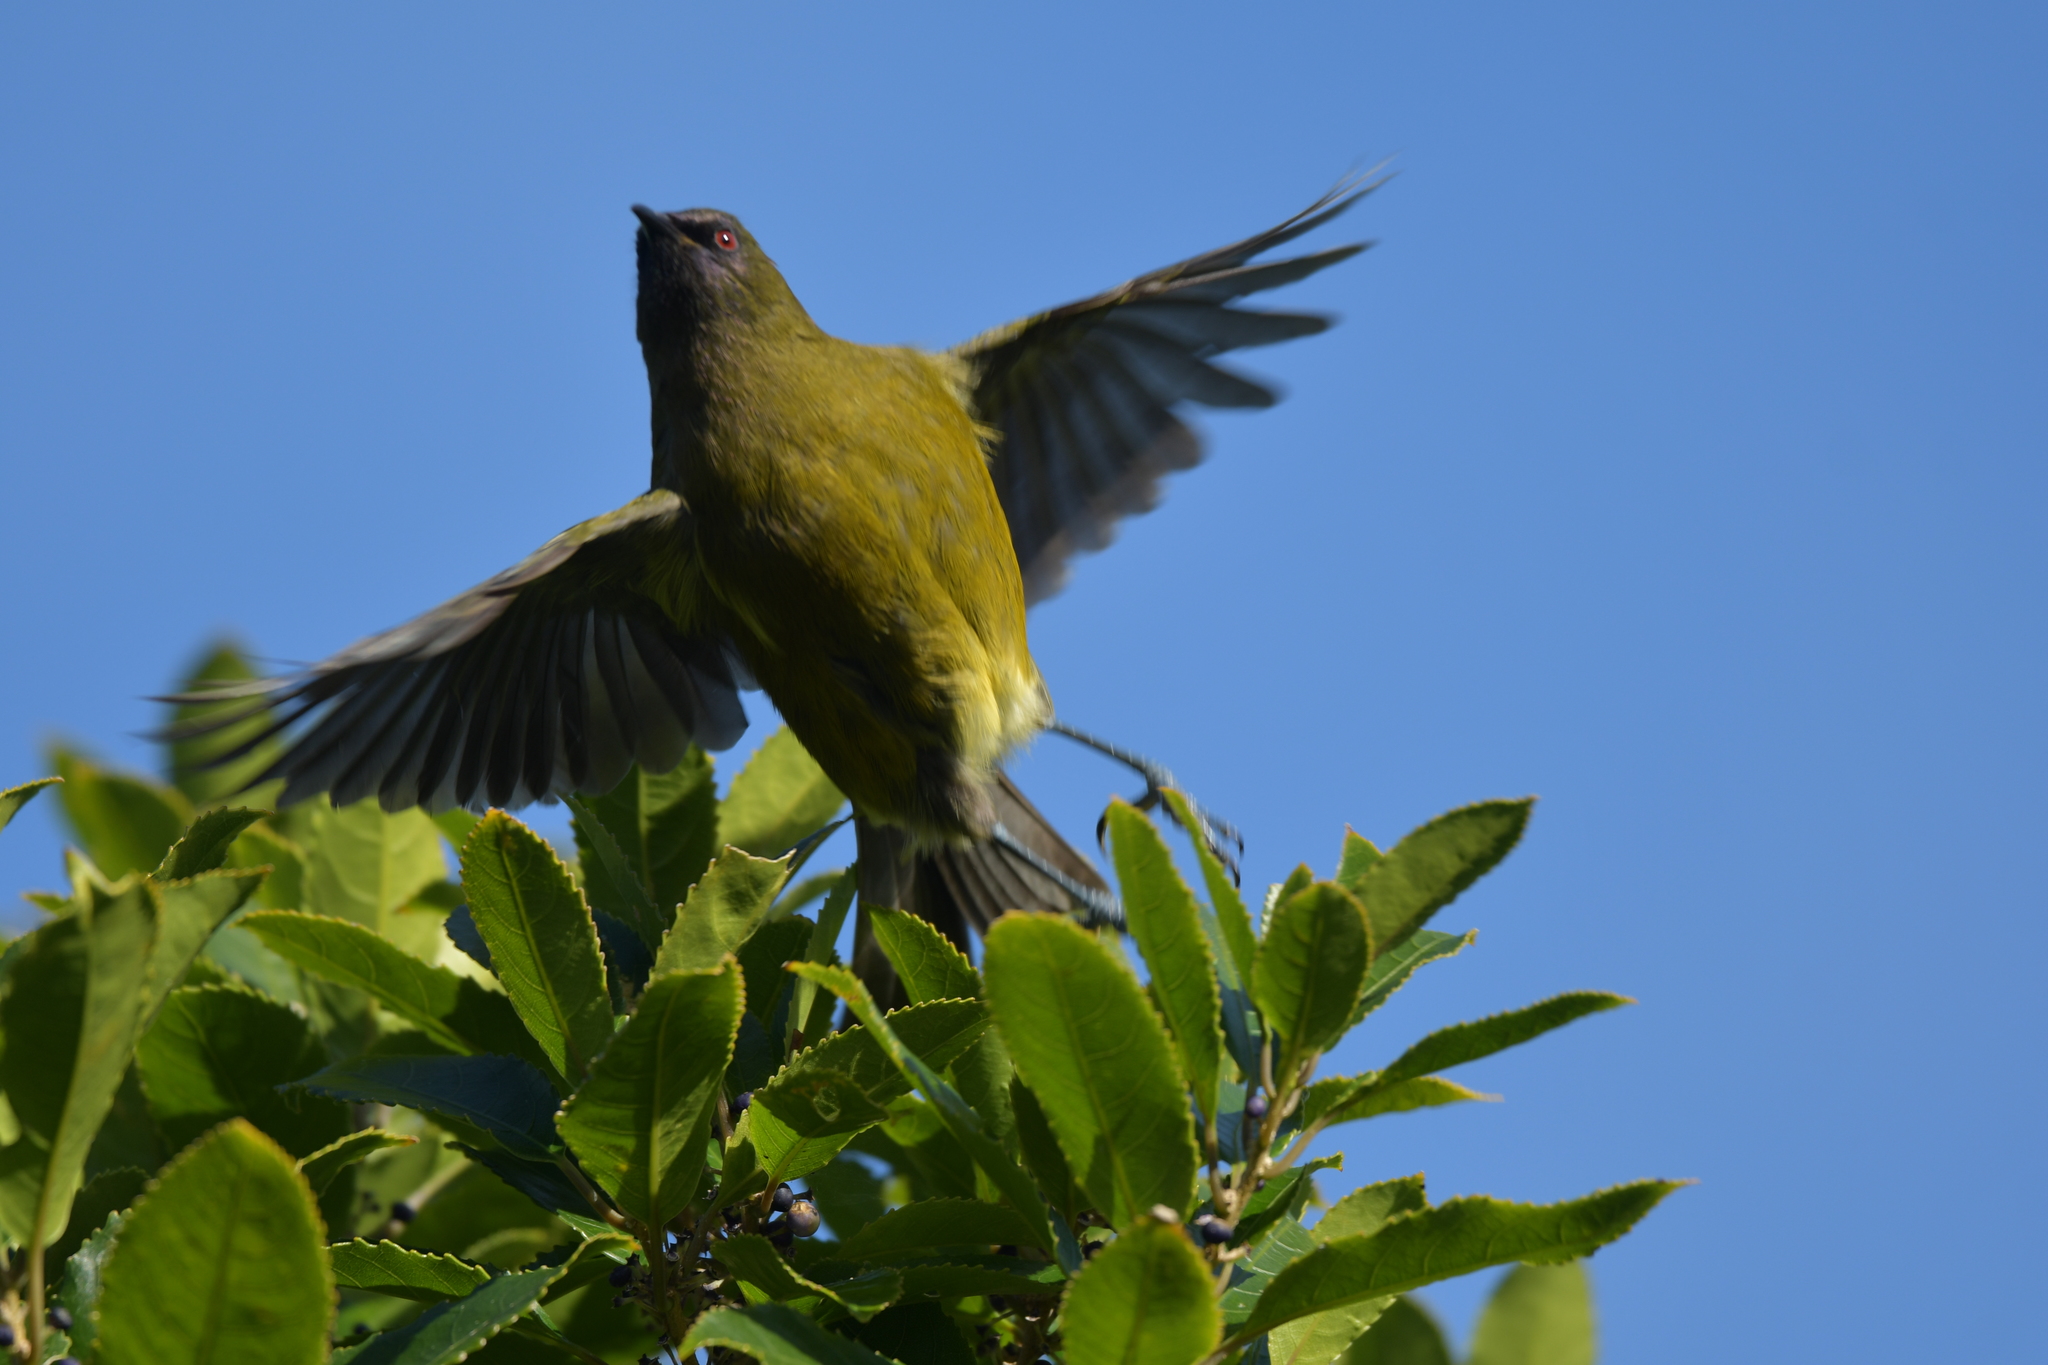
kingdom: Animalia
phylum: Chordata
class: Aves
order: Passeriformes
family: Meliphagidae
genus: Anthornis
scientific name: Anthornis melanura
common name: New zealand bellbird
